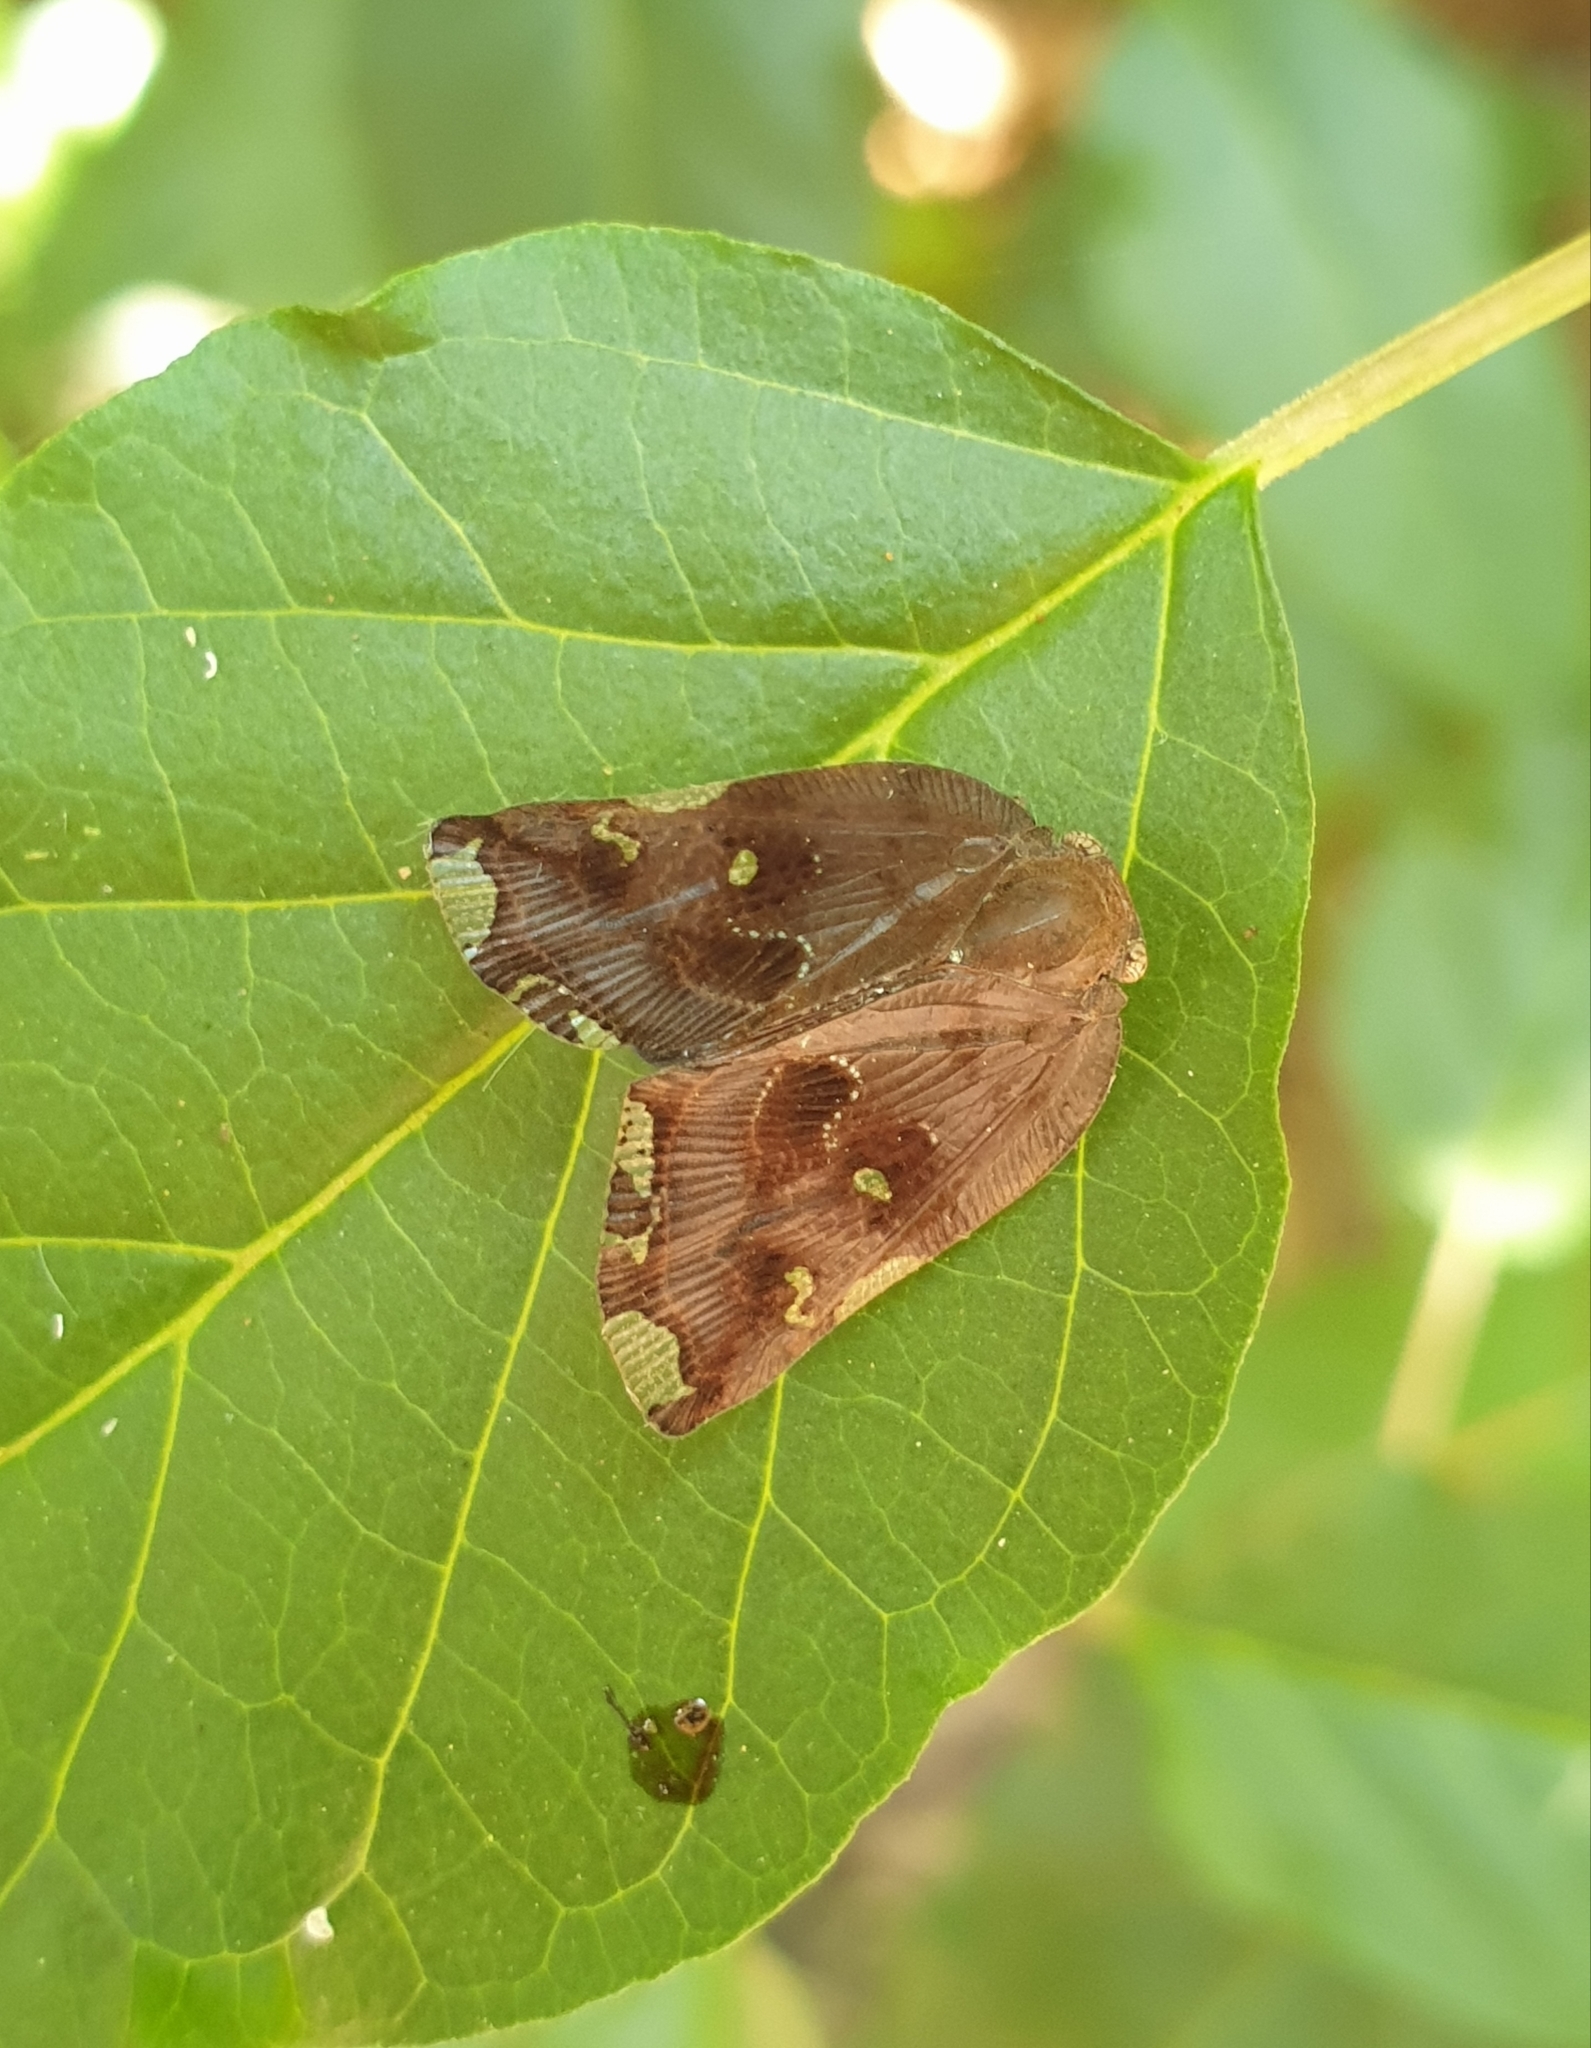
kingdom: Animalia
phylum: Arthropoda
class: Insecta
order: Hemiptera
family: Ricaniidae
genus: Ricania
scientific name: Ricania speculum
